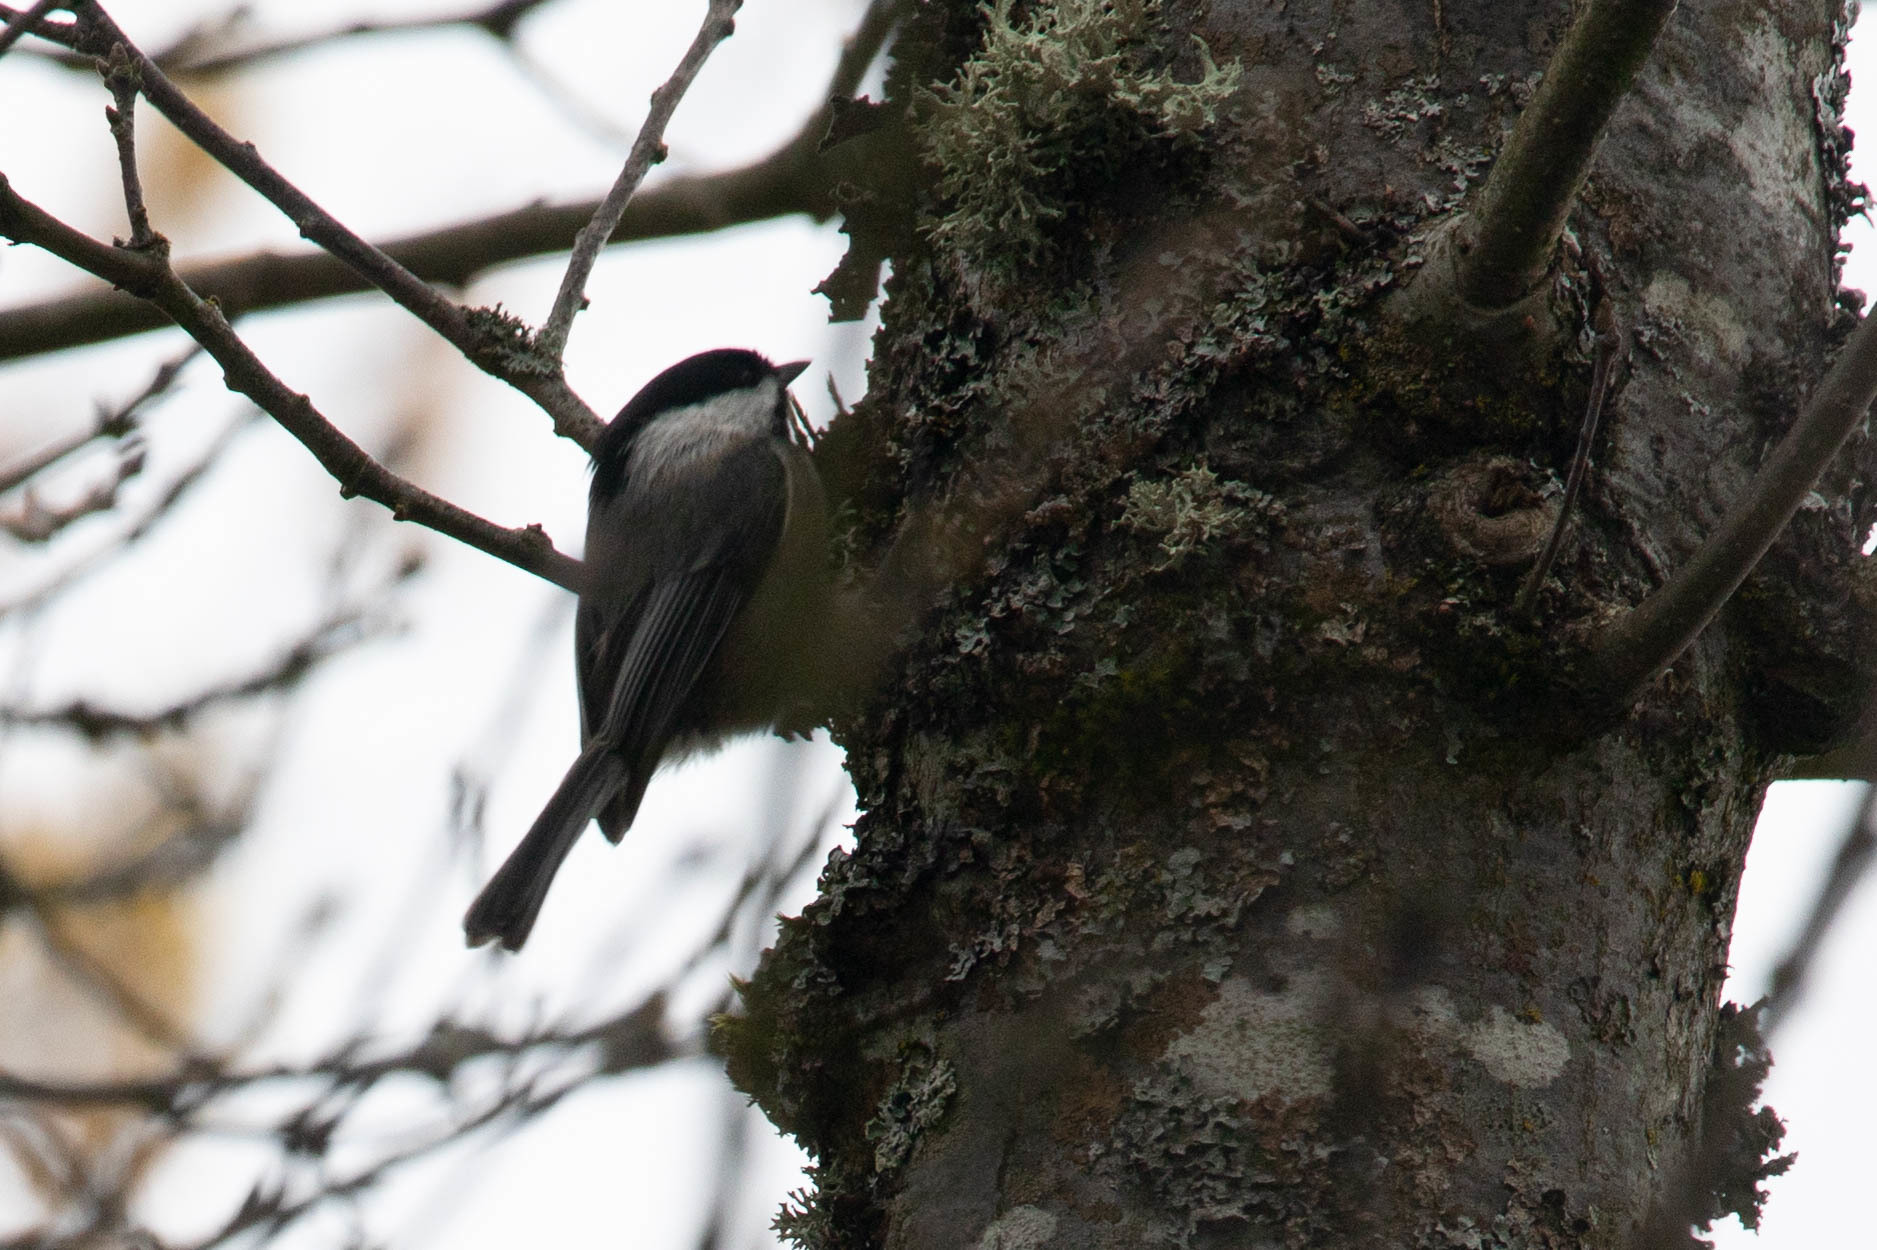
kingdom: Animalia
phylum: Chordata
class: Aves
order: Passeriformes
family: Paridae
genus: Poecile
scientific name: Poecile atricapillus
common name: Black-capped chickadee
